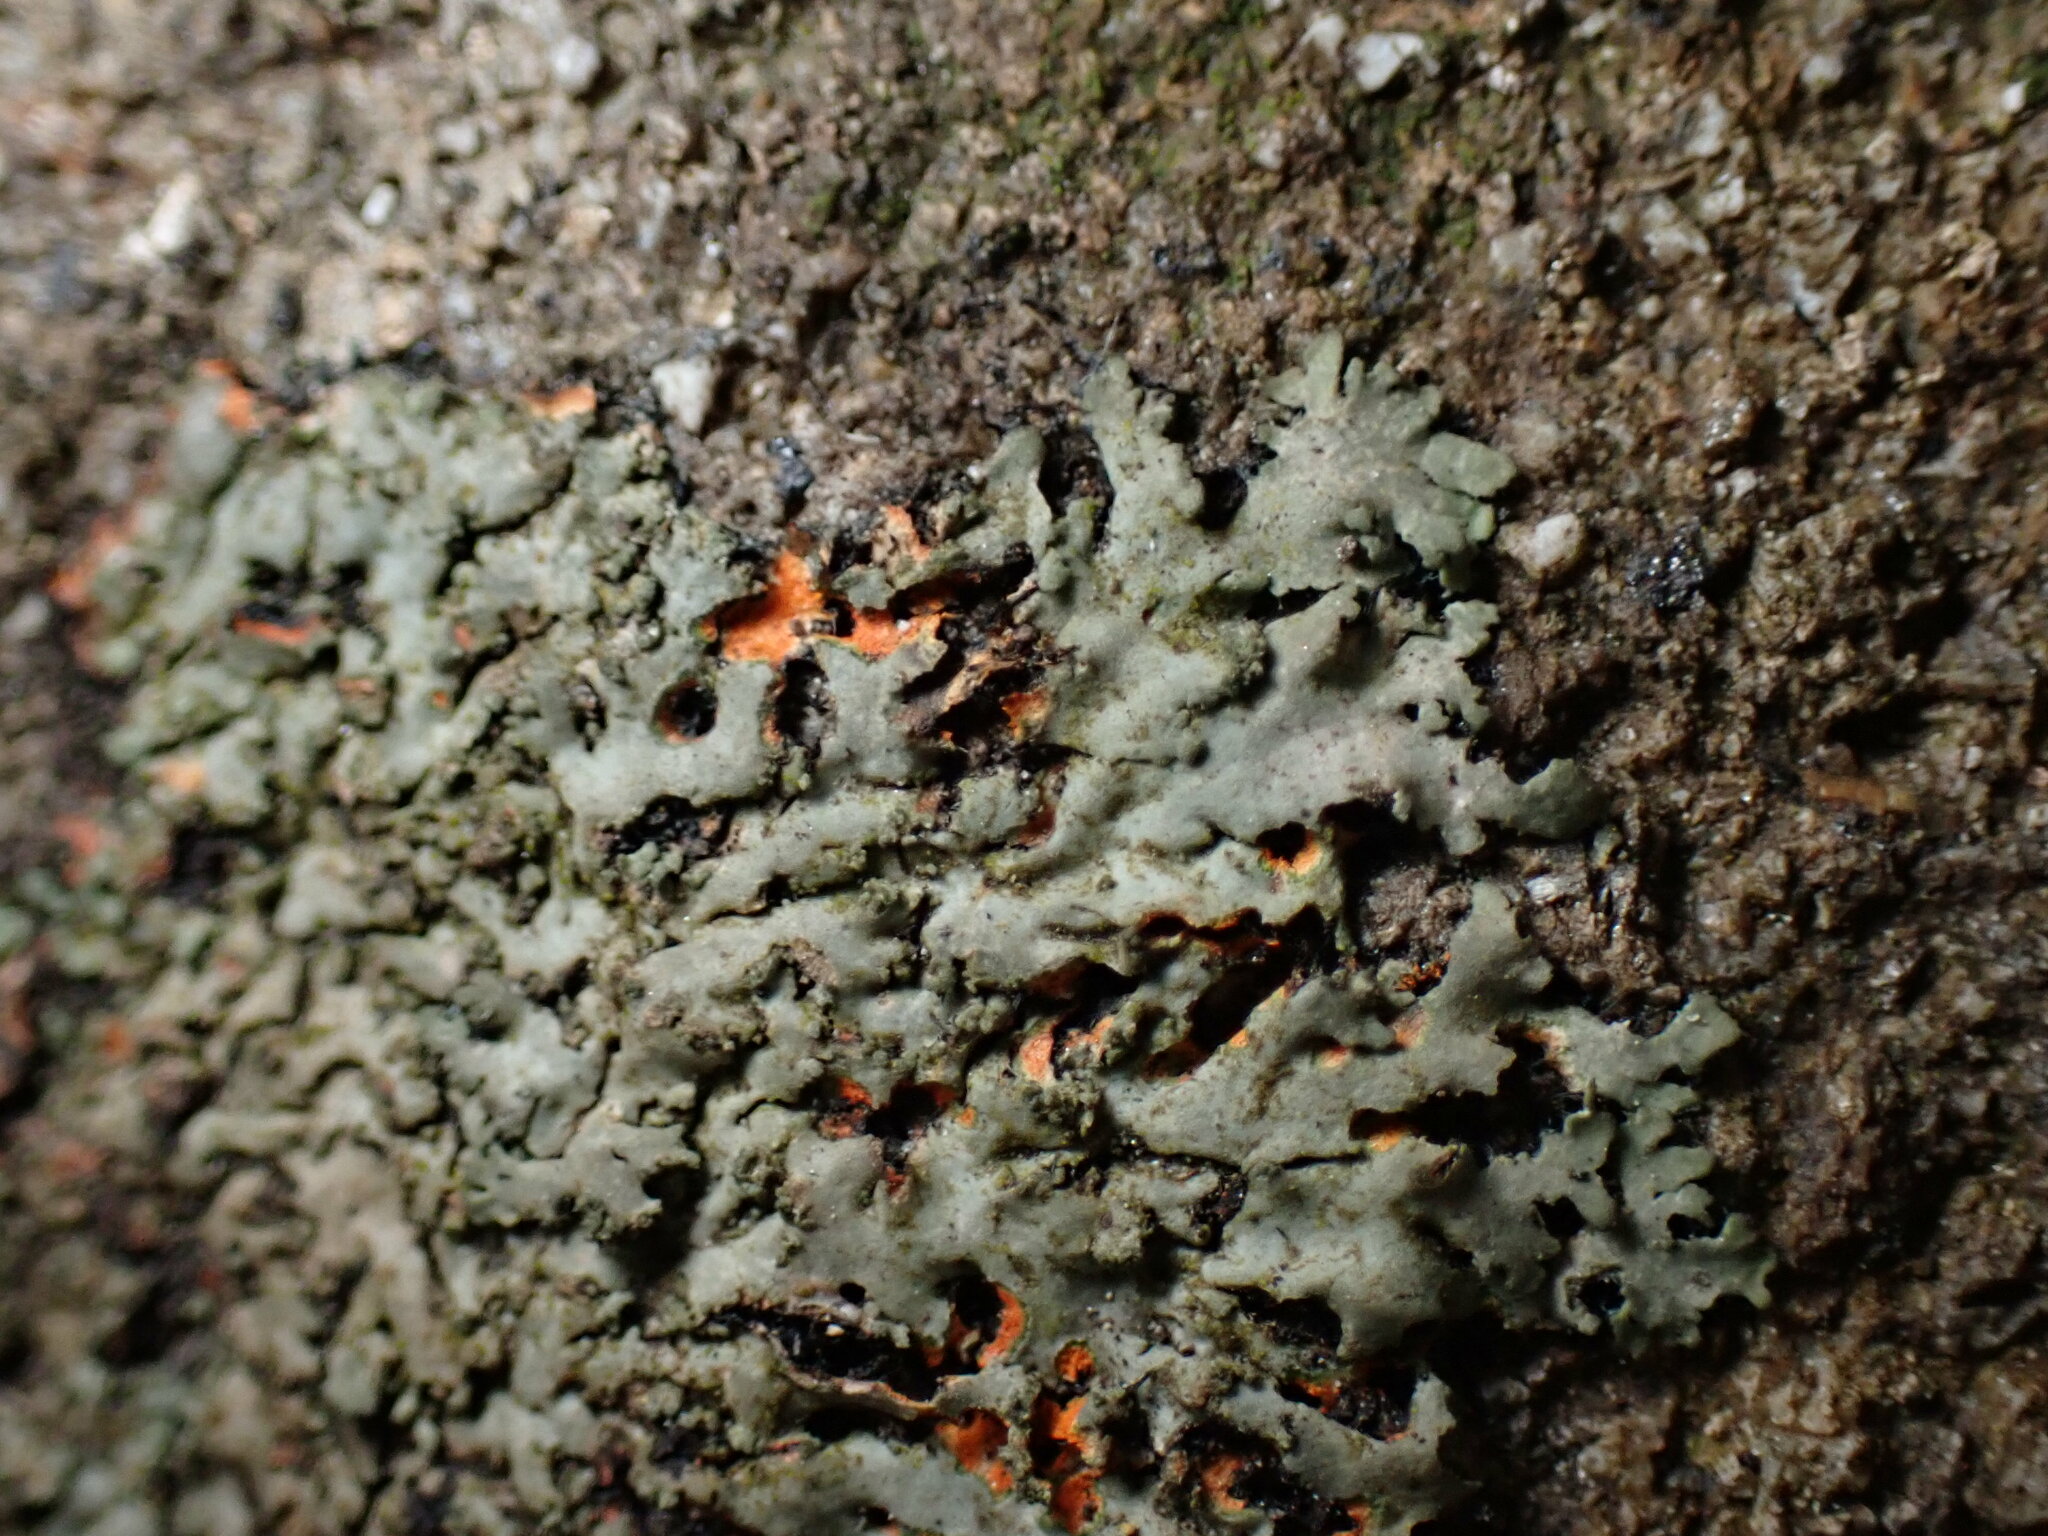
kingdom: Fungi
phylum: Ascomycota
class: Lecanoromycetes
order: Caliciales
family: Physciaceae
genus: Phaeophyscia
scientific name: Phaeophyscia rubropulchra
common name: Orange-cored shadow lichen
